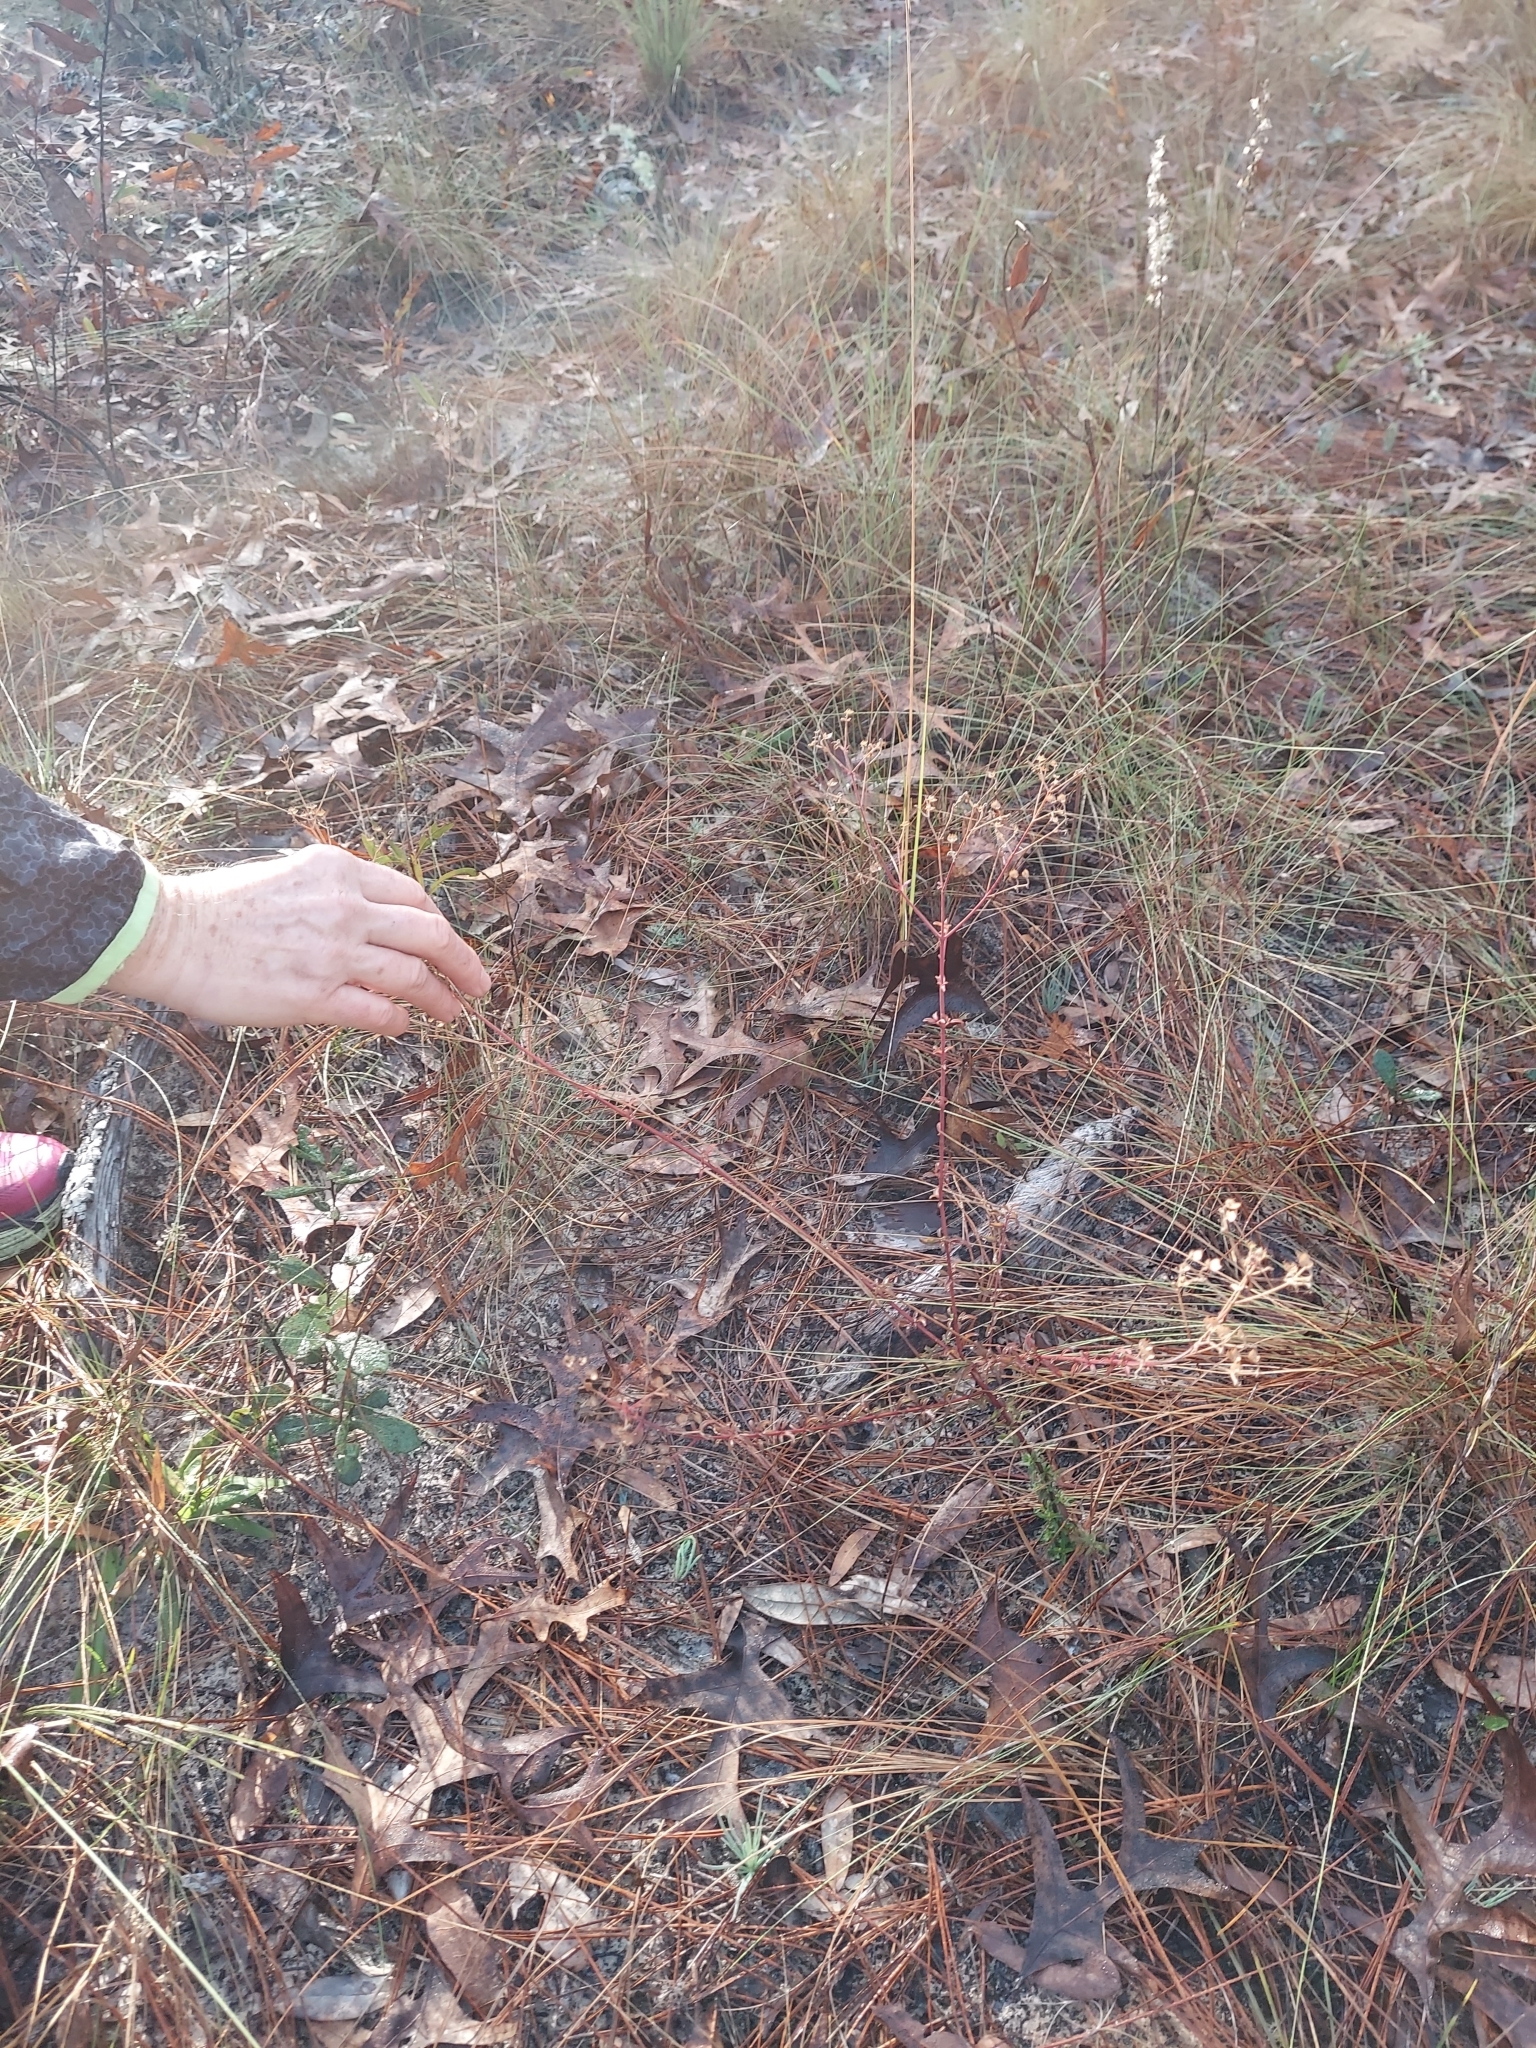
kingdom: Plantae
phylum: Tracheophyta
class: Magnoliopsida
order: Lamiales
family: Lamiaceae
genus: Trichostema
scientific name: Trichostema microphyllum
